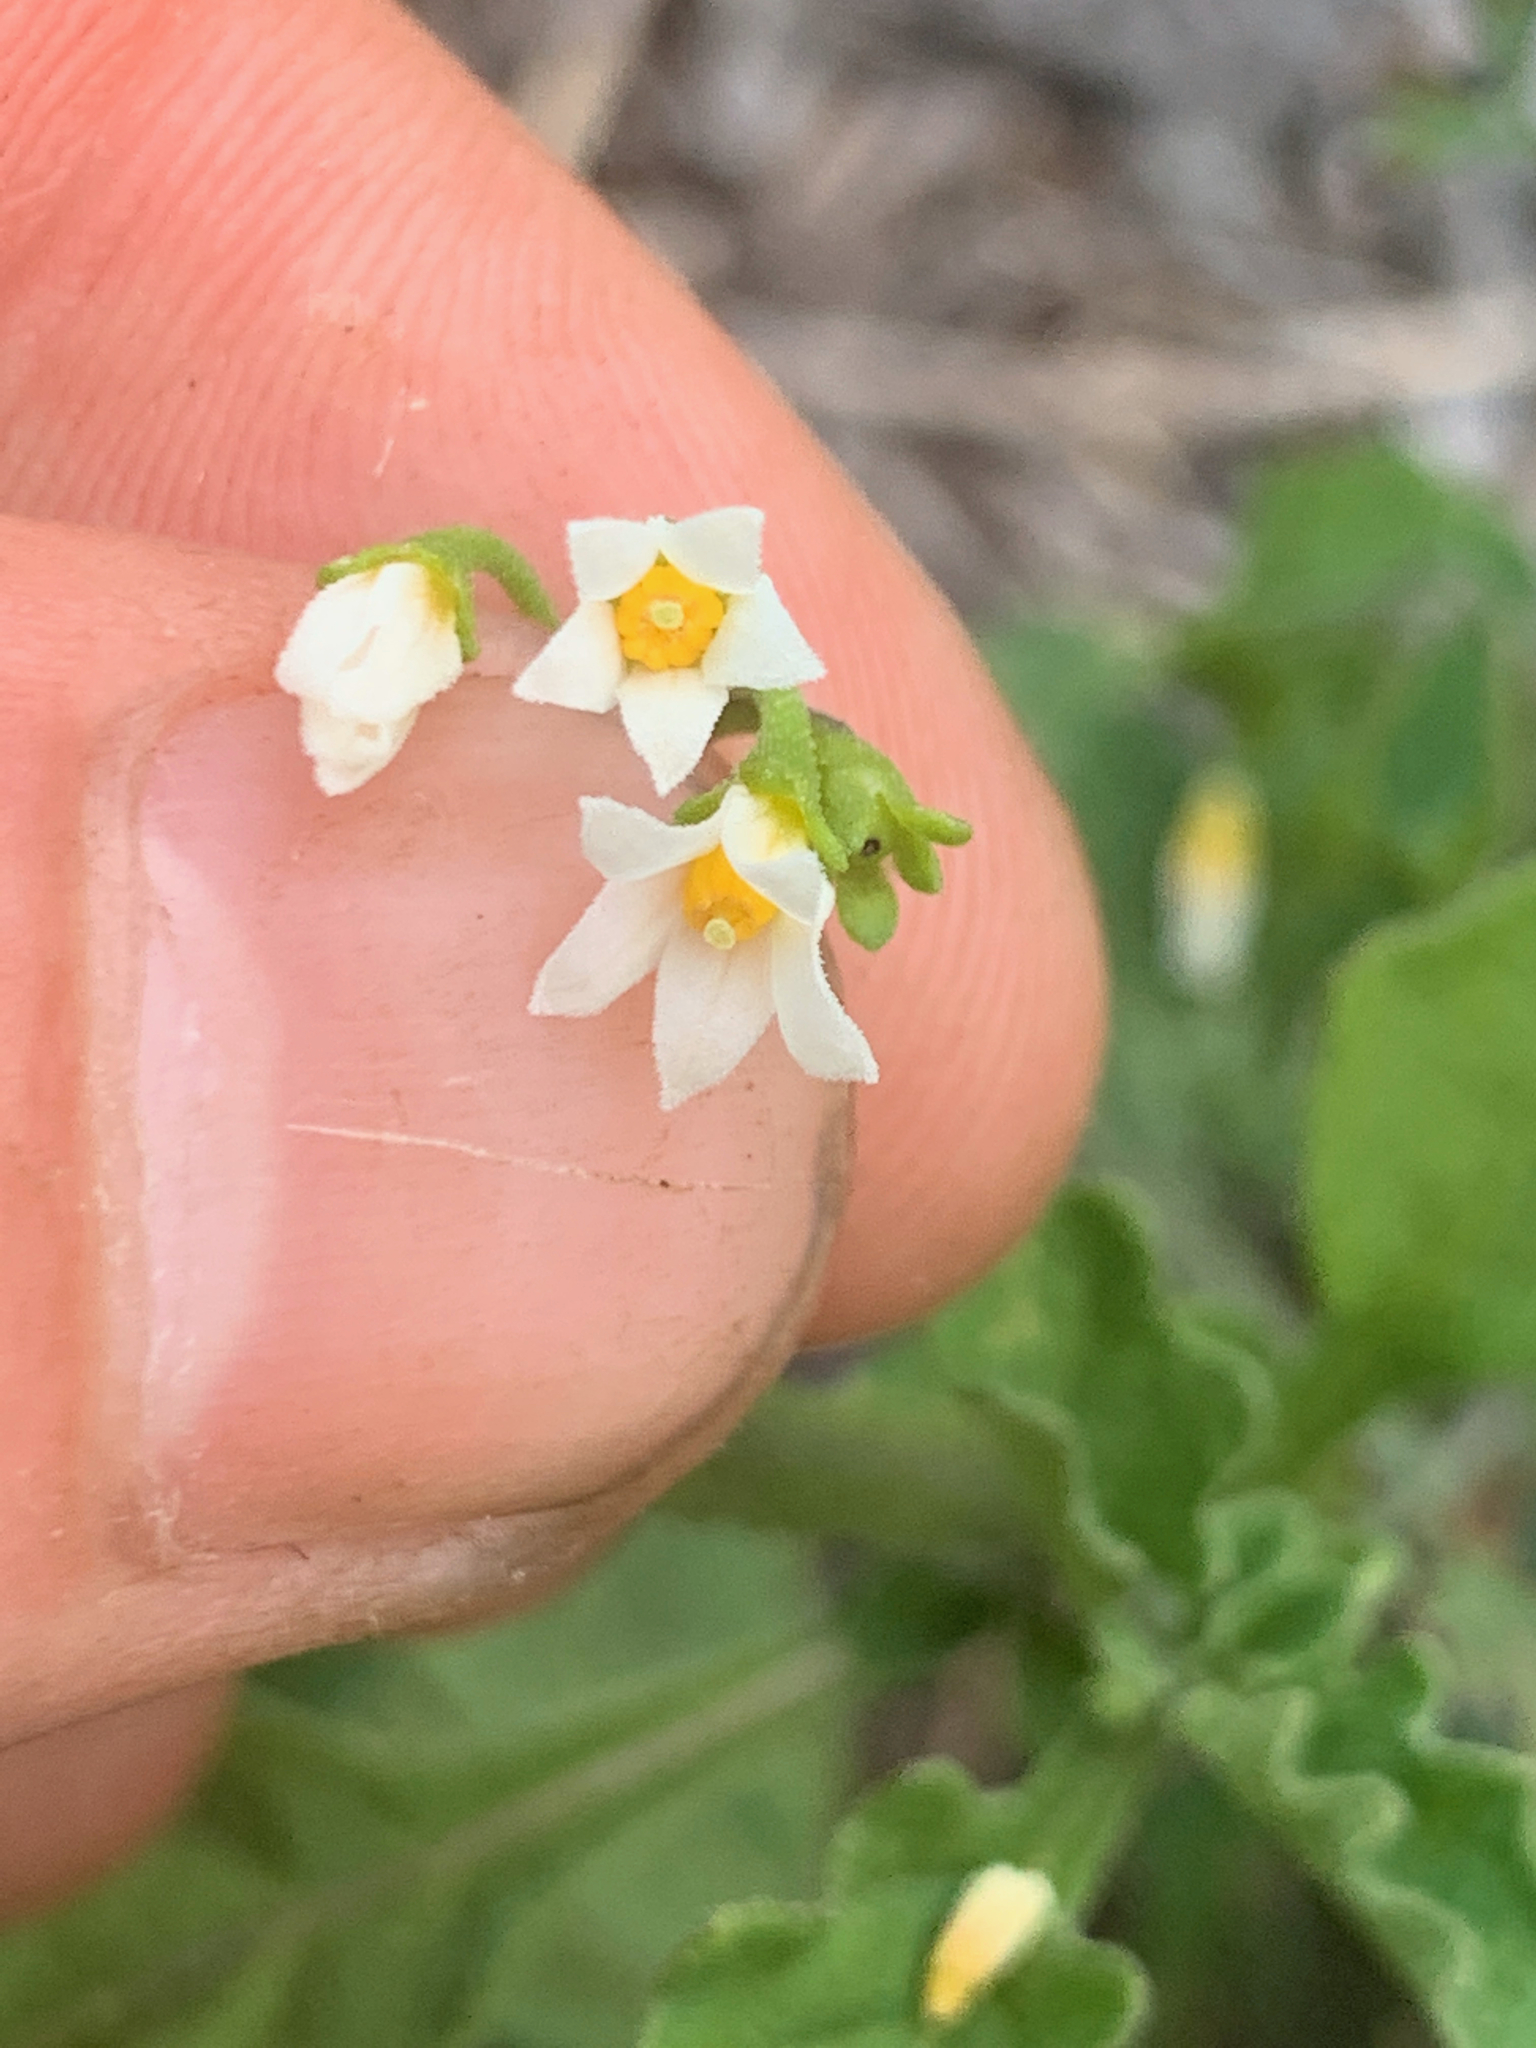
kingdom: Plantae
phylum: Tracheophyta
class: Magnoliopsida
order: Solanales
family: Solanaceae
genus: Solanum
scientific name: Solanum retroflexum
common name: Wonderberry
